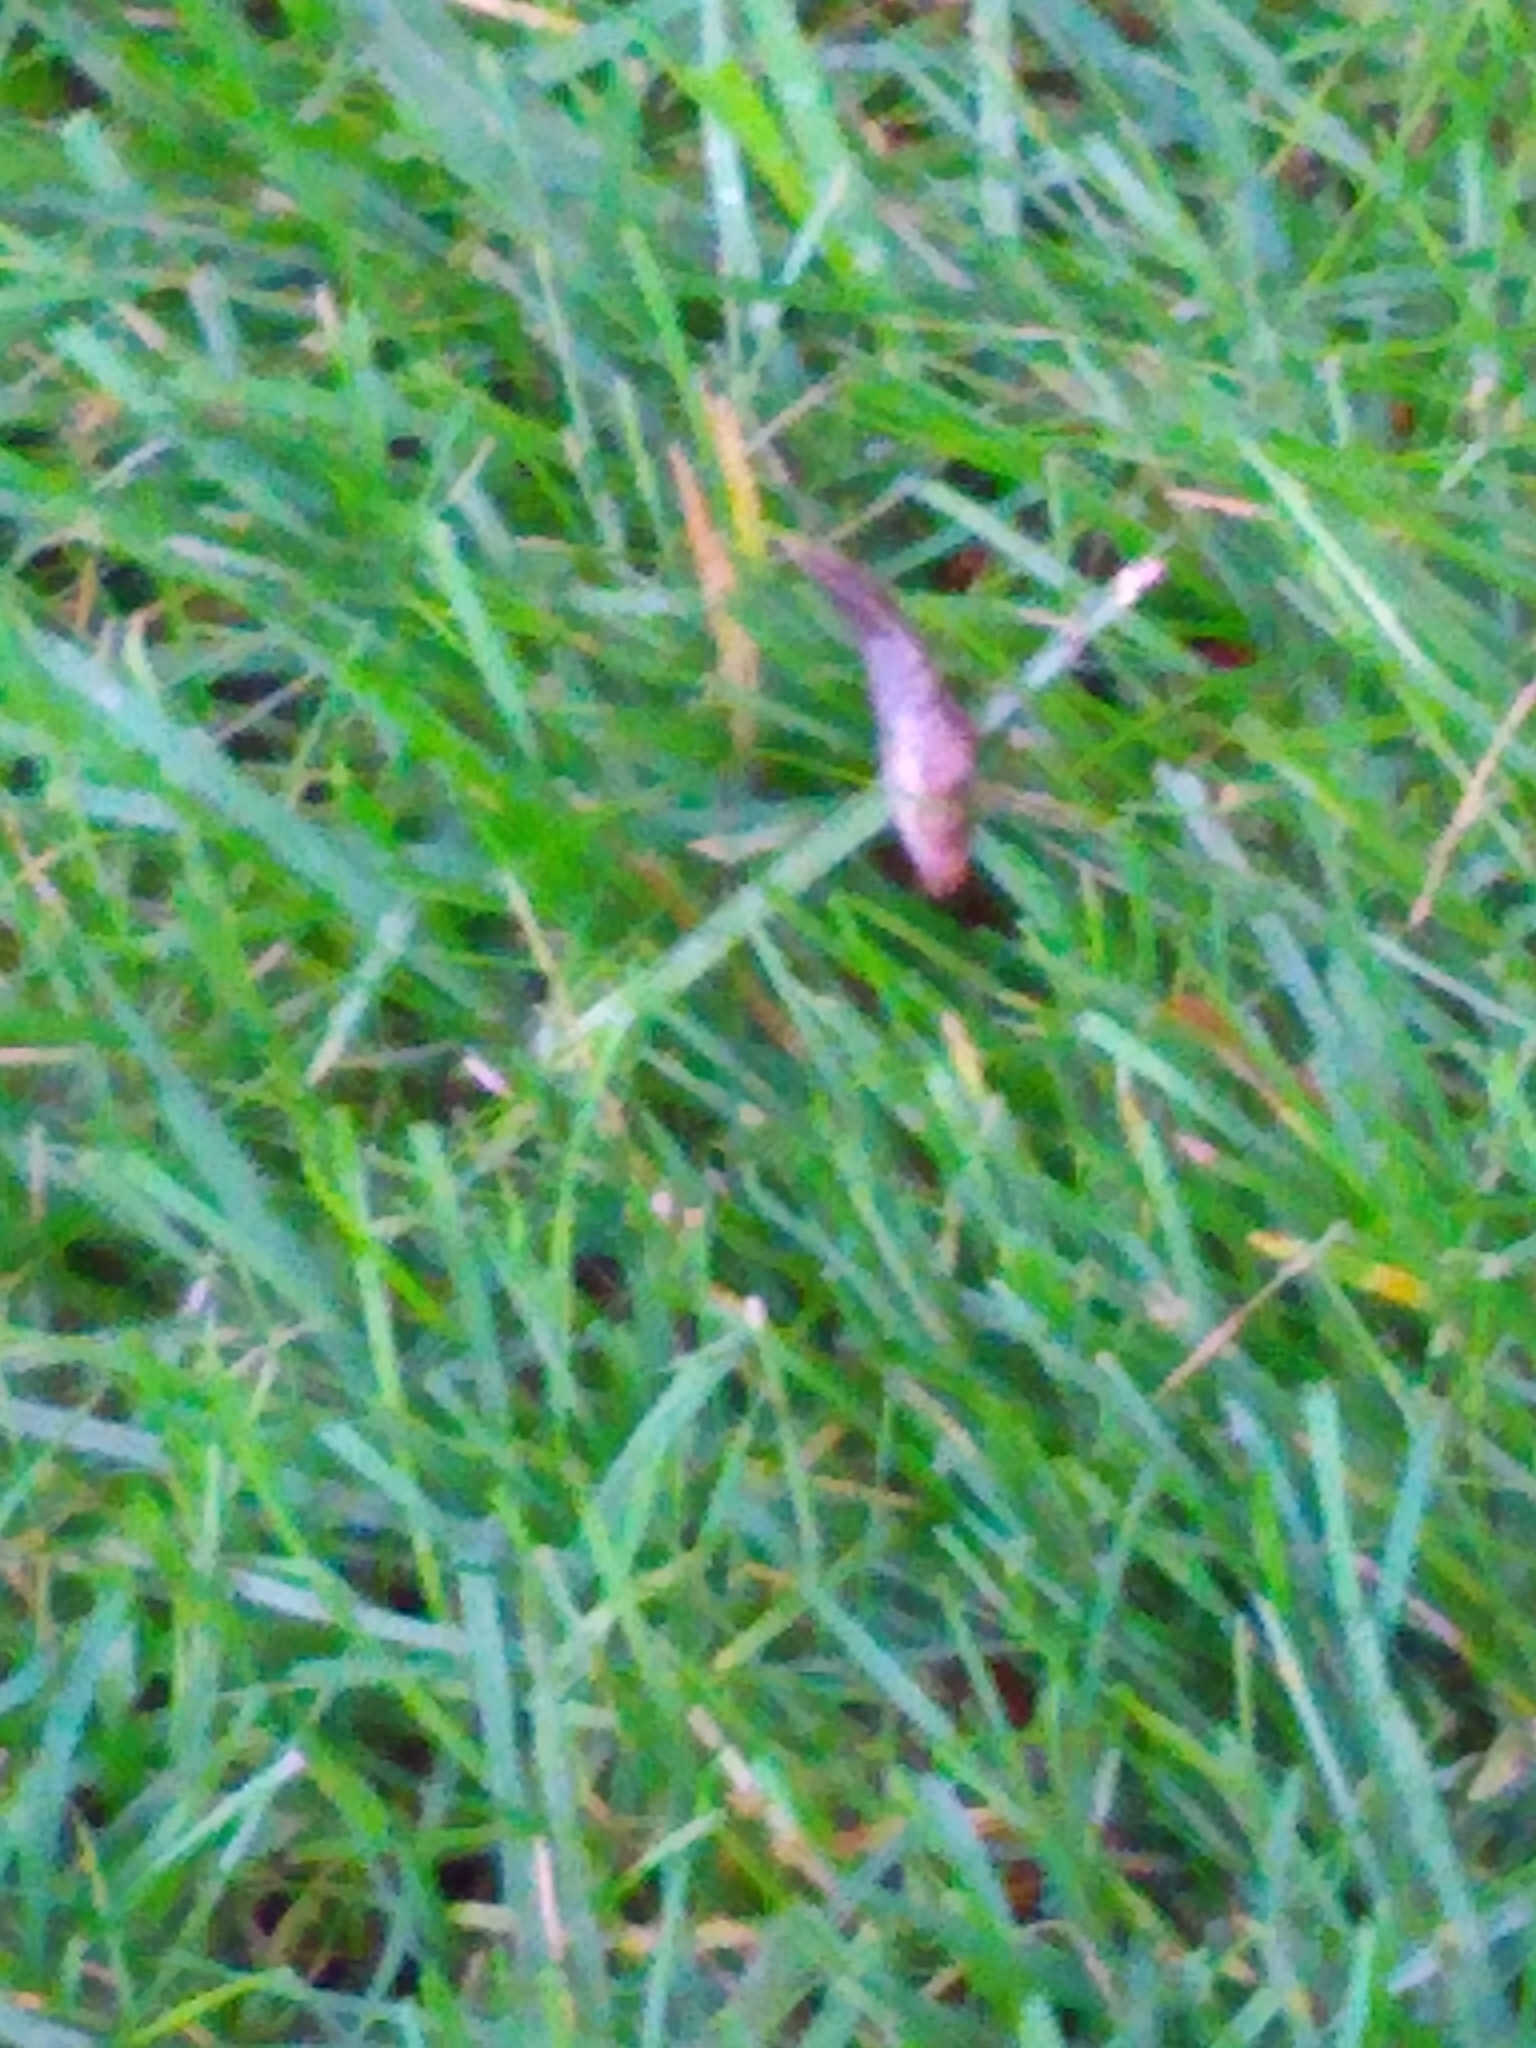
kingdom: Animalia
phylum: Mollusca
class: Gastropoda
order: Stylommatophora
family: Agriolimacidae
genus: Deroceras
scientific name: Deroceras reticulatum
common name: Gray field slug
